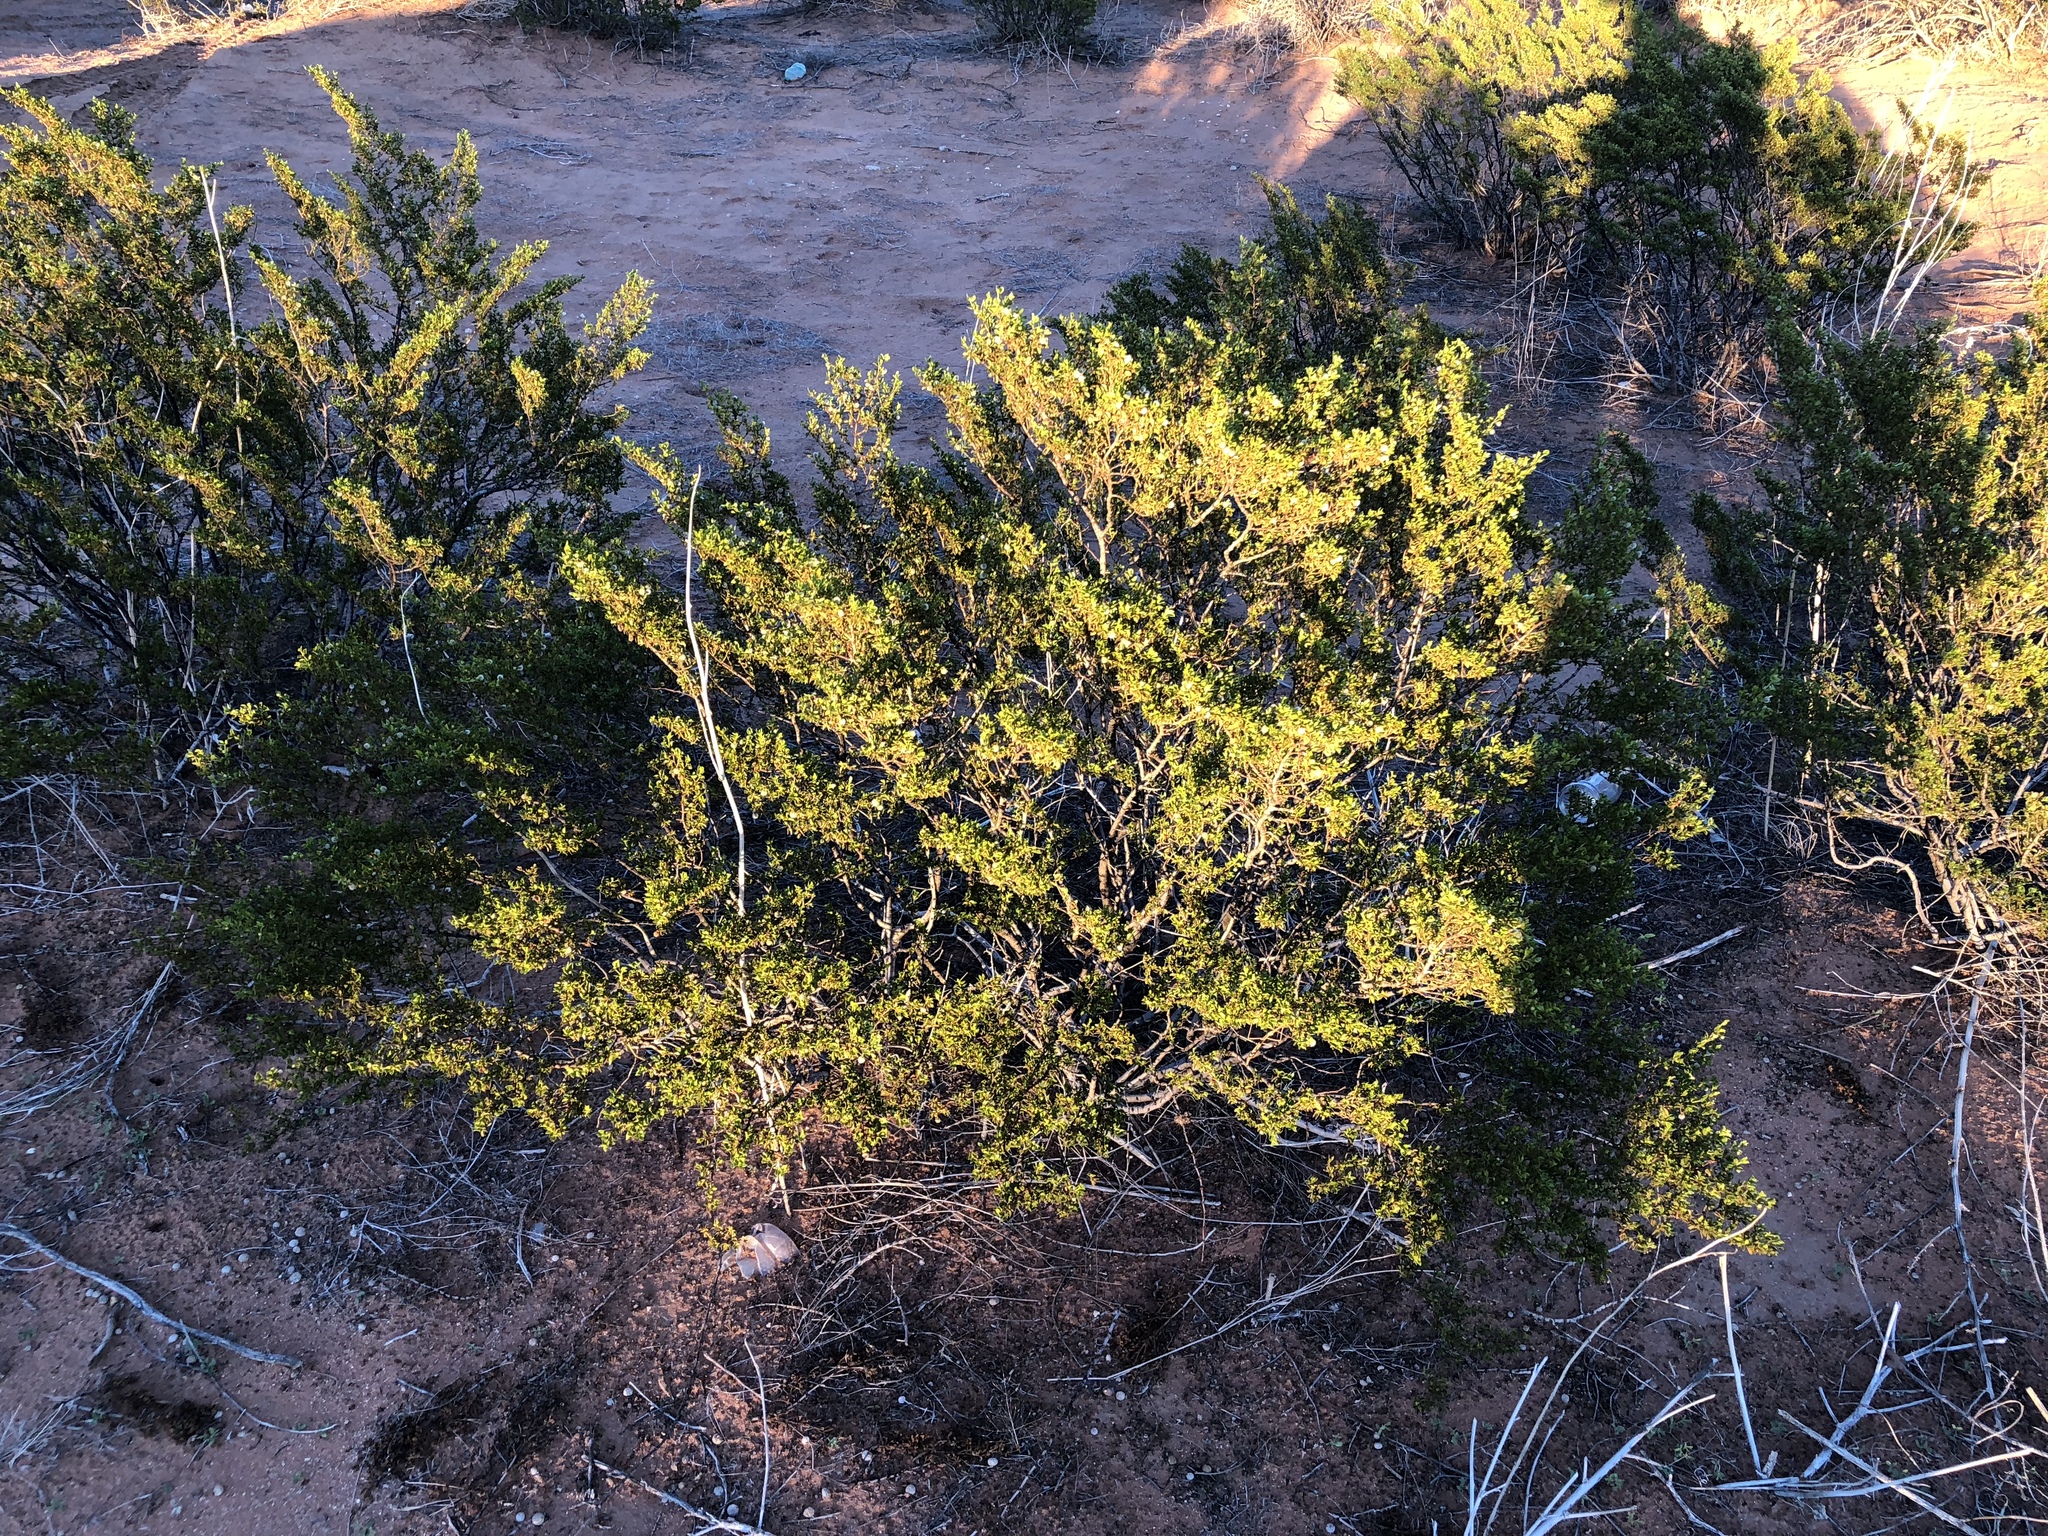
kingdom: Plantae
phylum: Tracheophyta
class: Magnoliopsida
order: Zygophyllales
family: Zygophyllaceae
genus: Larrea
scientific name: Larrea tridentata
